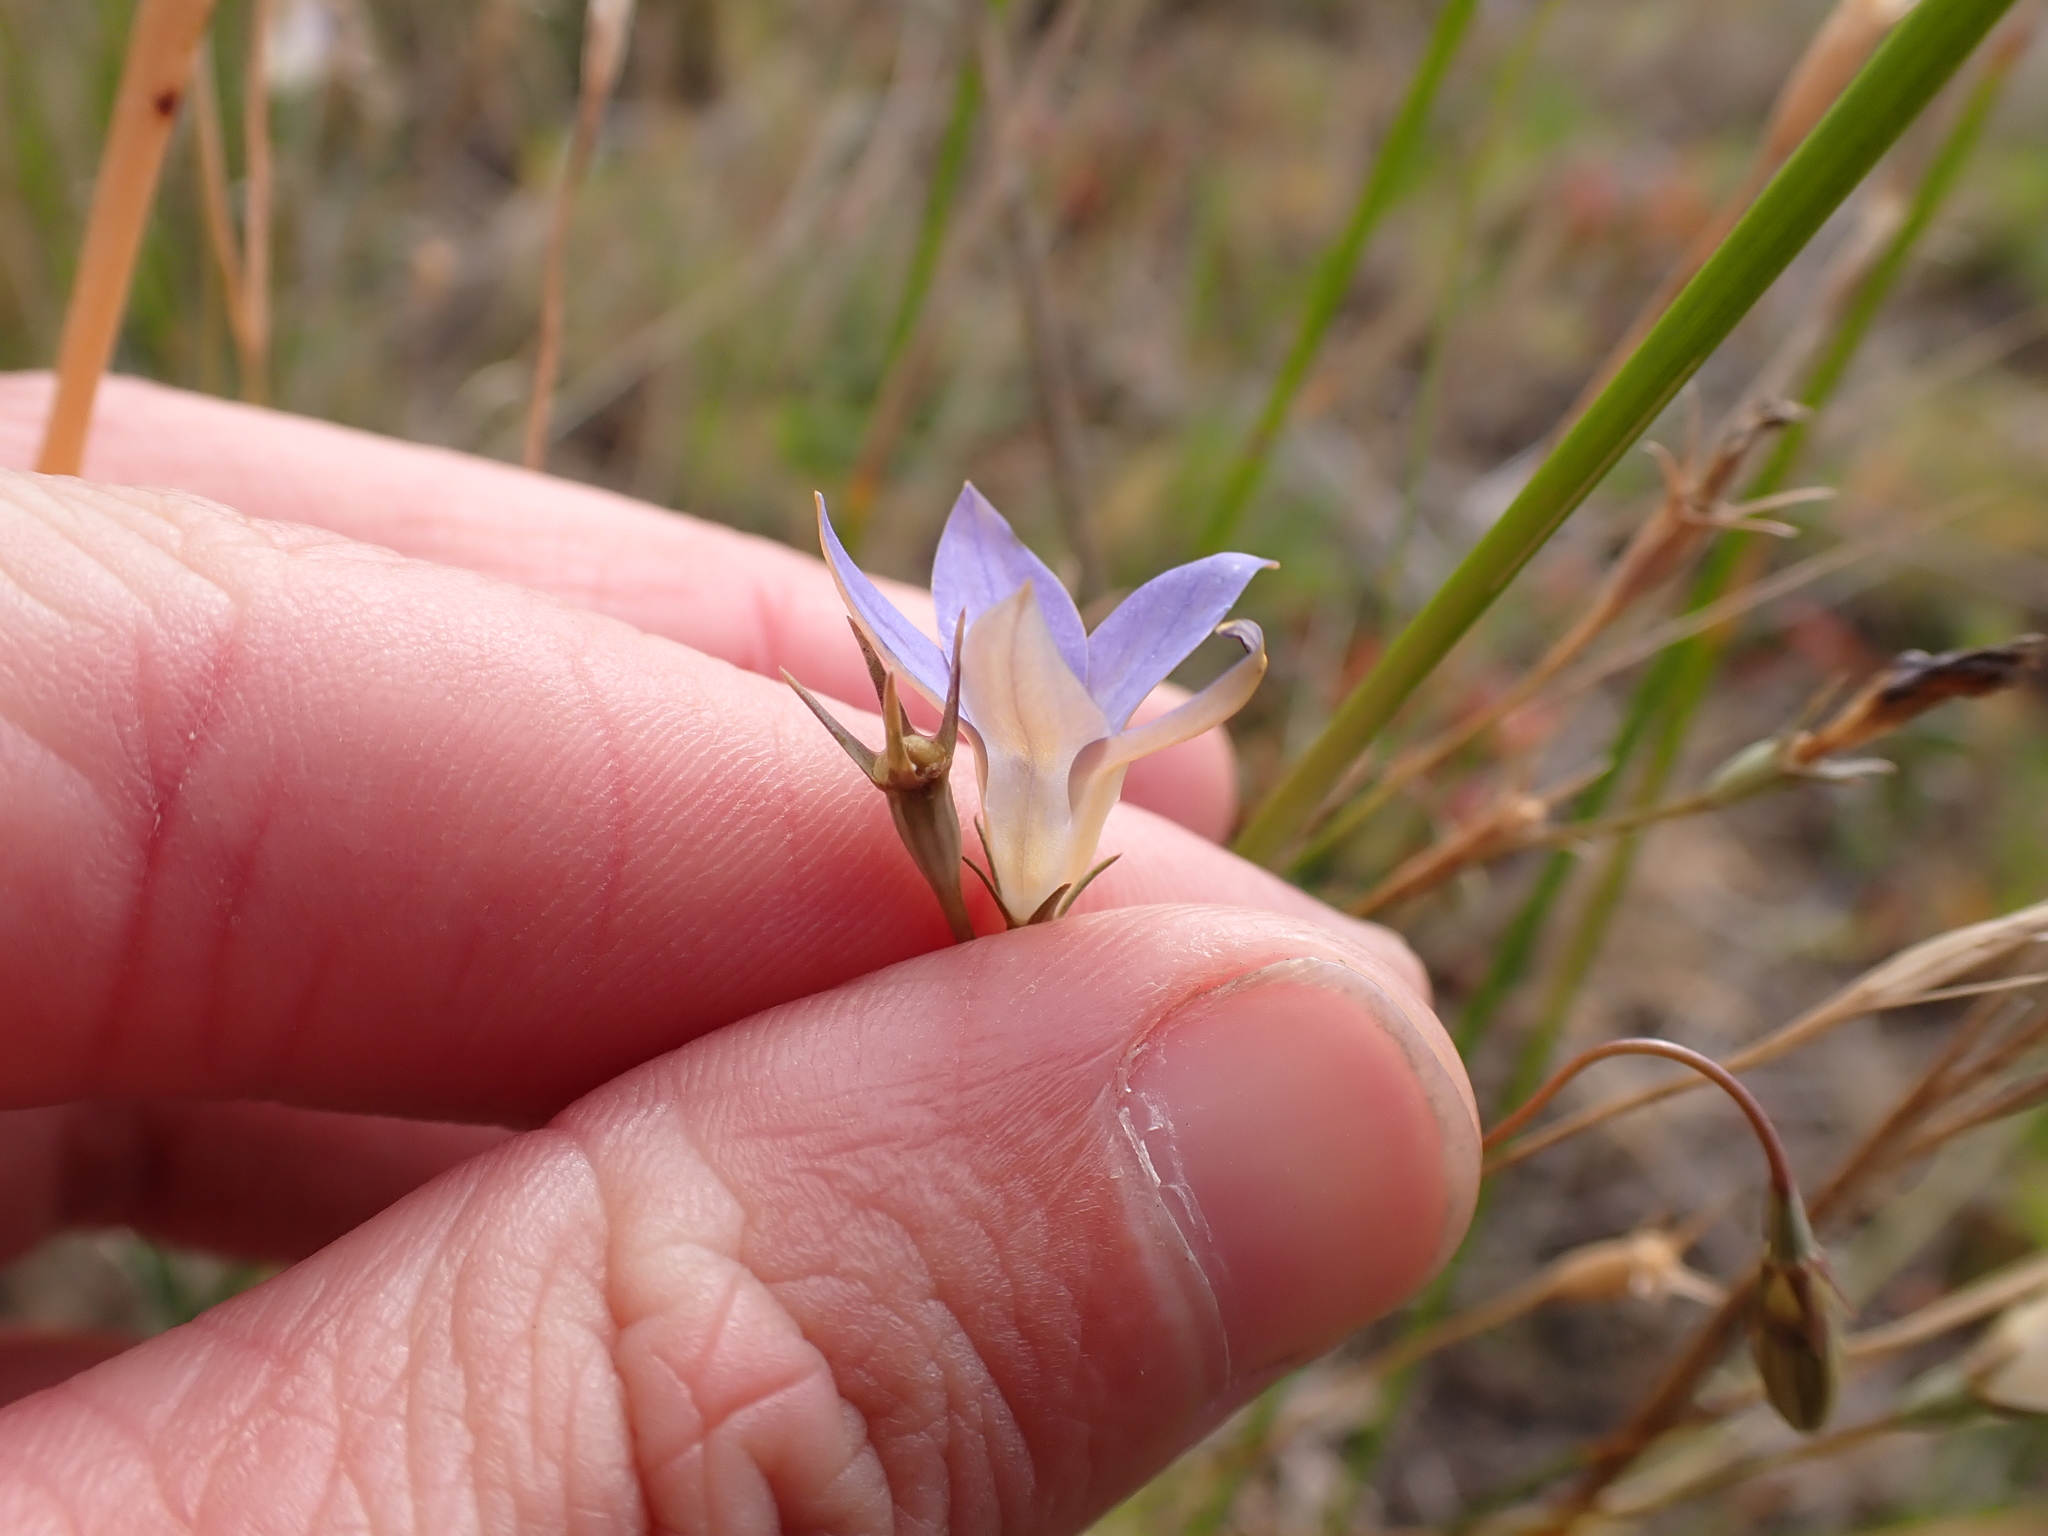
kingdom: Plantae
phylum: Tracheophyta
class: Magnoliopsida
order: Asterales
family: Campanulaceae
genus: Wahlenbergia
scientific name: Wahlenbergia luteola
